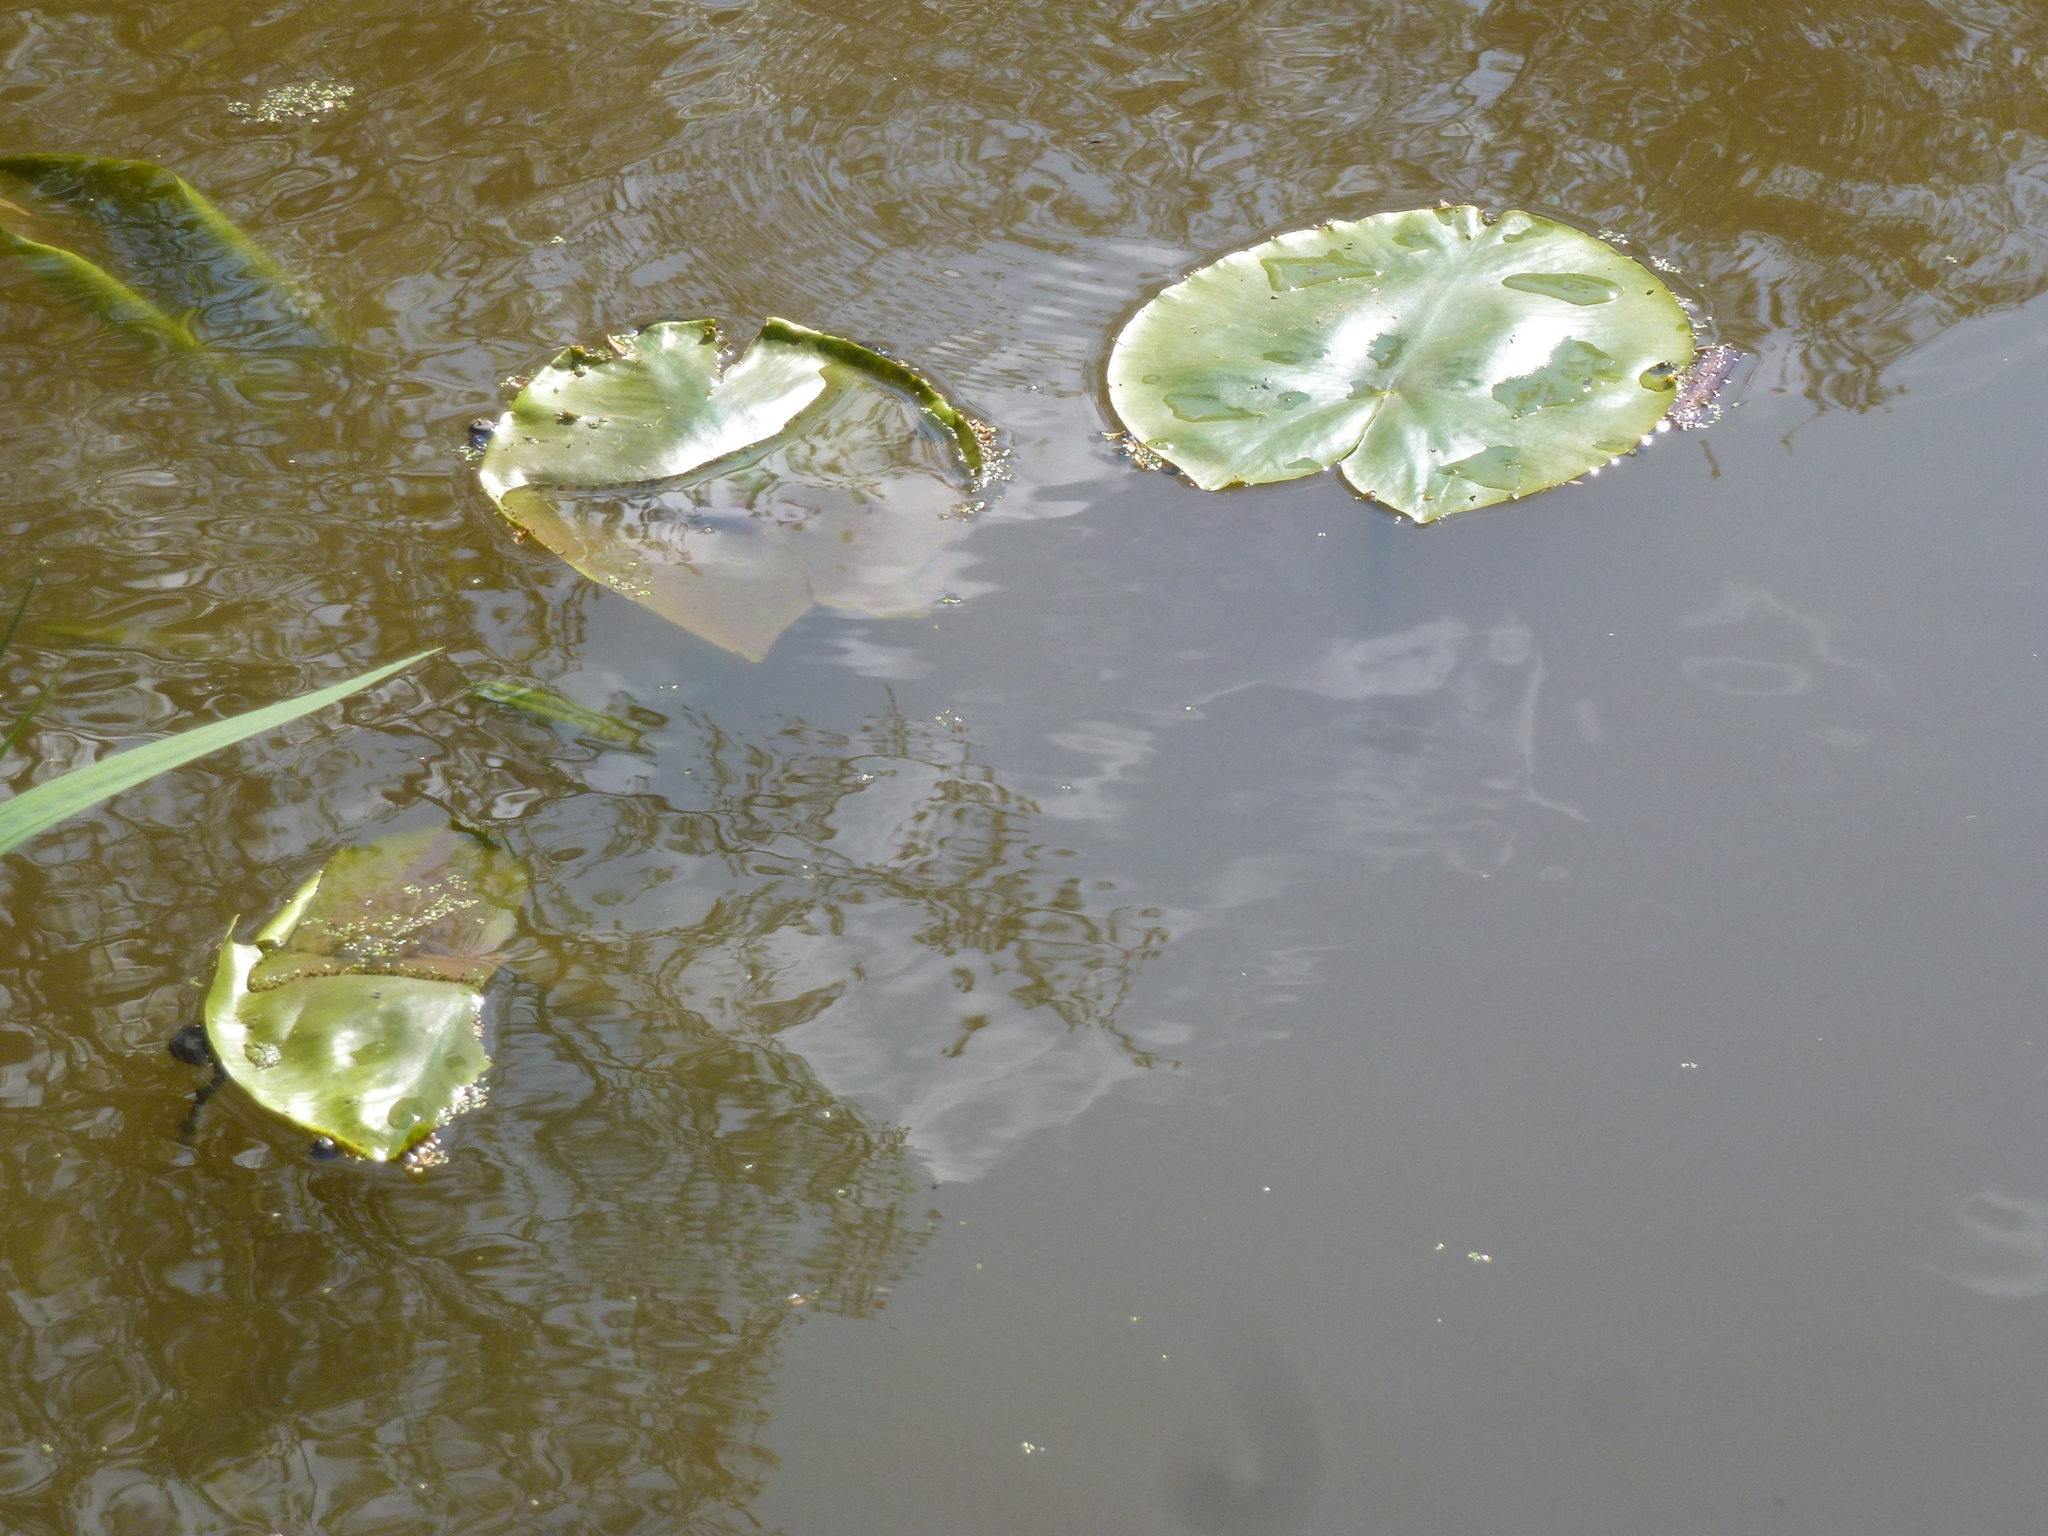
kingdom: Plantae
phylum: Tracheophyta
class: Magnoliopsida
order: Nymphaeales
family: Nymphaeaceae
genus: Nuphar
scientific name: Nuphar lutea
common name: Yellow water-lily
